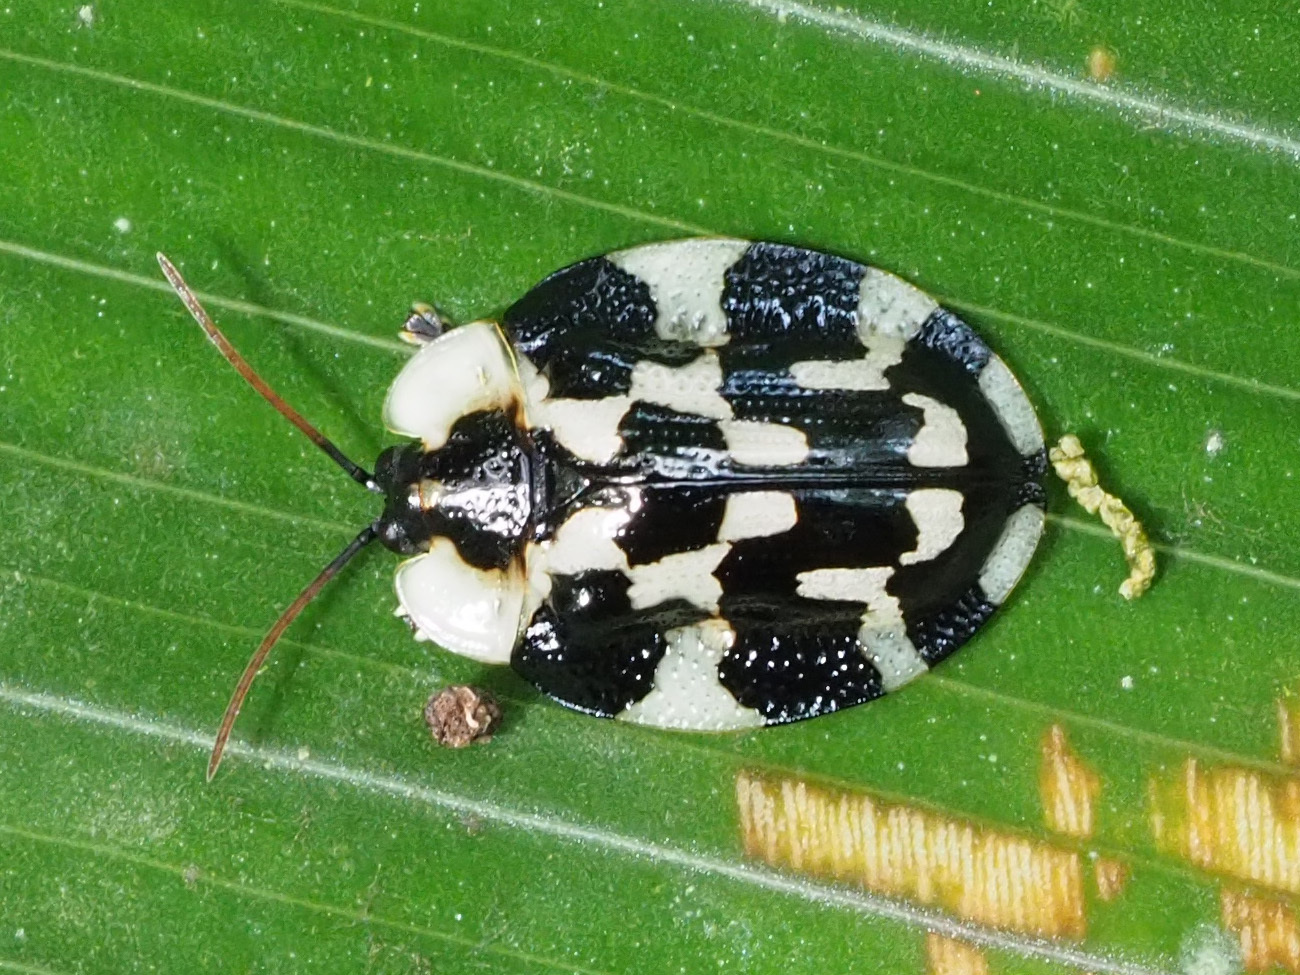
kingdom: Animalia
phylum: Arthropoda
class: Insecta
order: Coleoptera
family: Chrysomelidae
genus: Aslamidium
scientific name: Aslamidium capense
